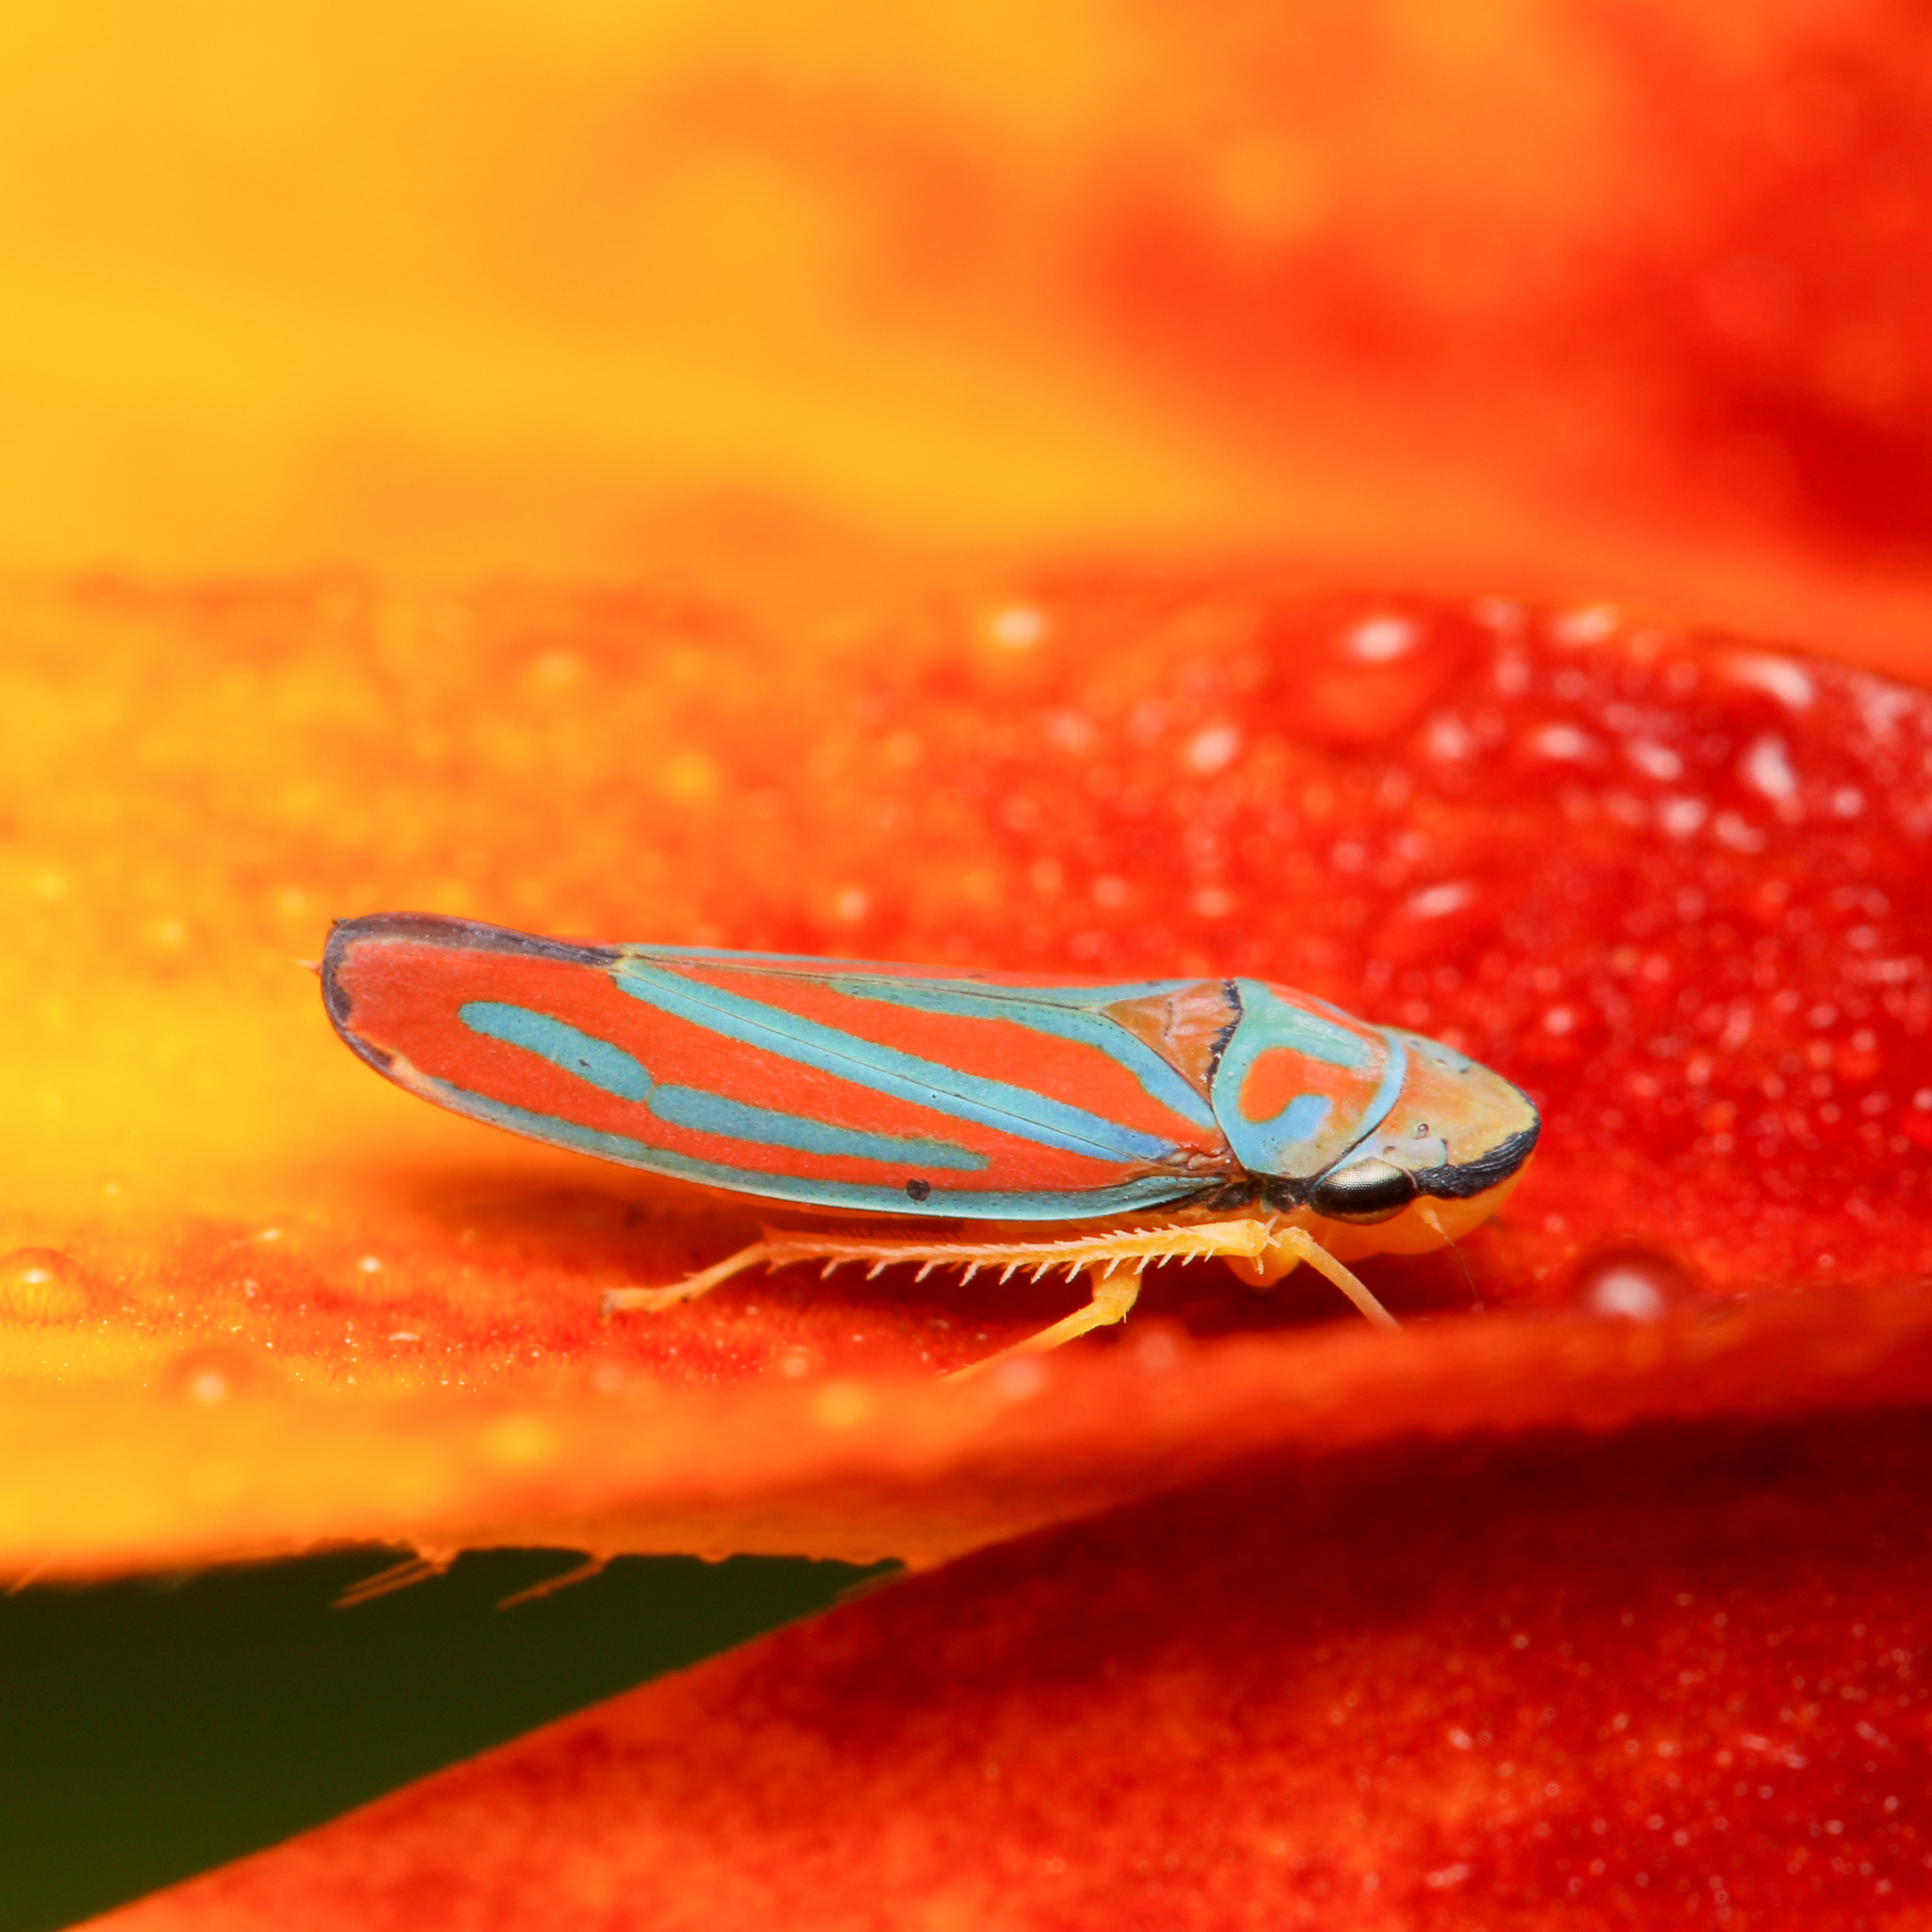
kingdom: Animalia
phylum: Arthropoda
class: Insecta
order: Hemiptera
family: Cicadellidae
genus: Graphocephala
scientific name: Graphocephala coccinea
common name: Candy-striped leafhopper
